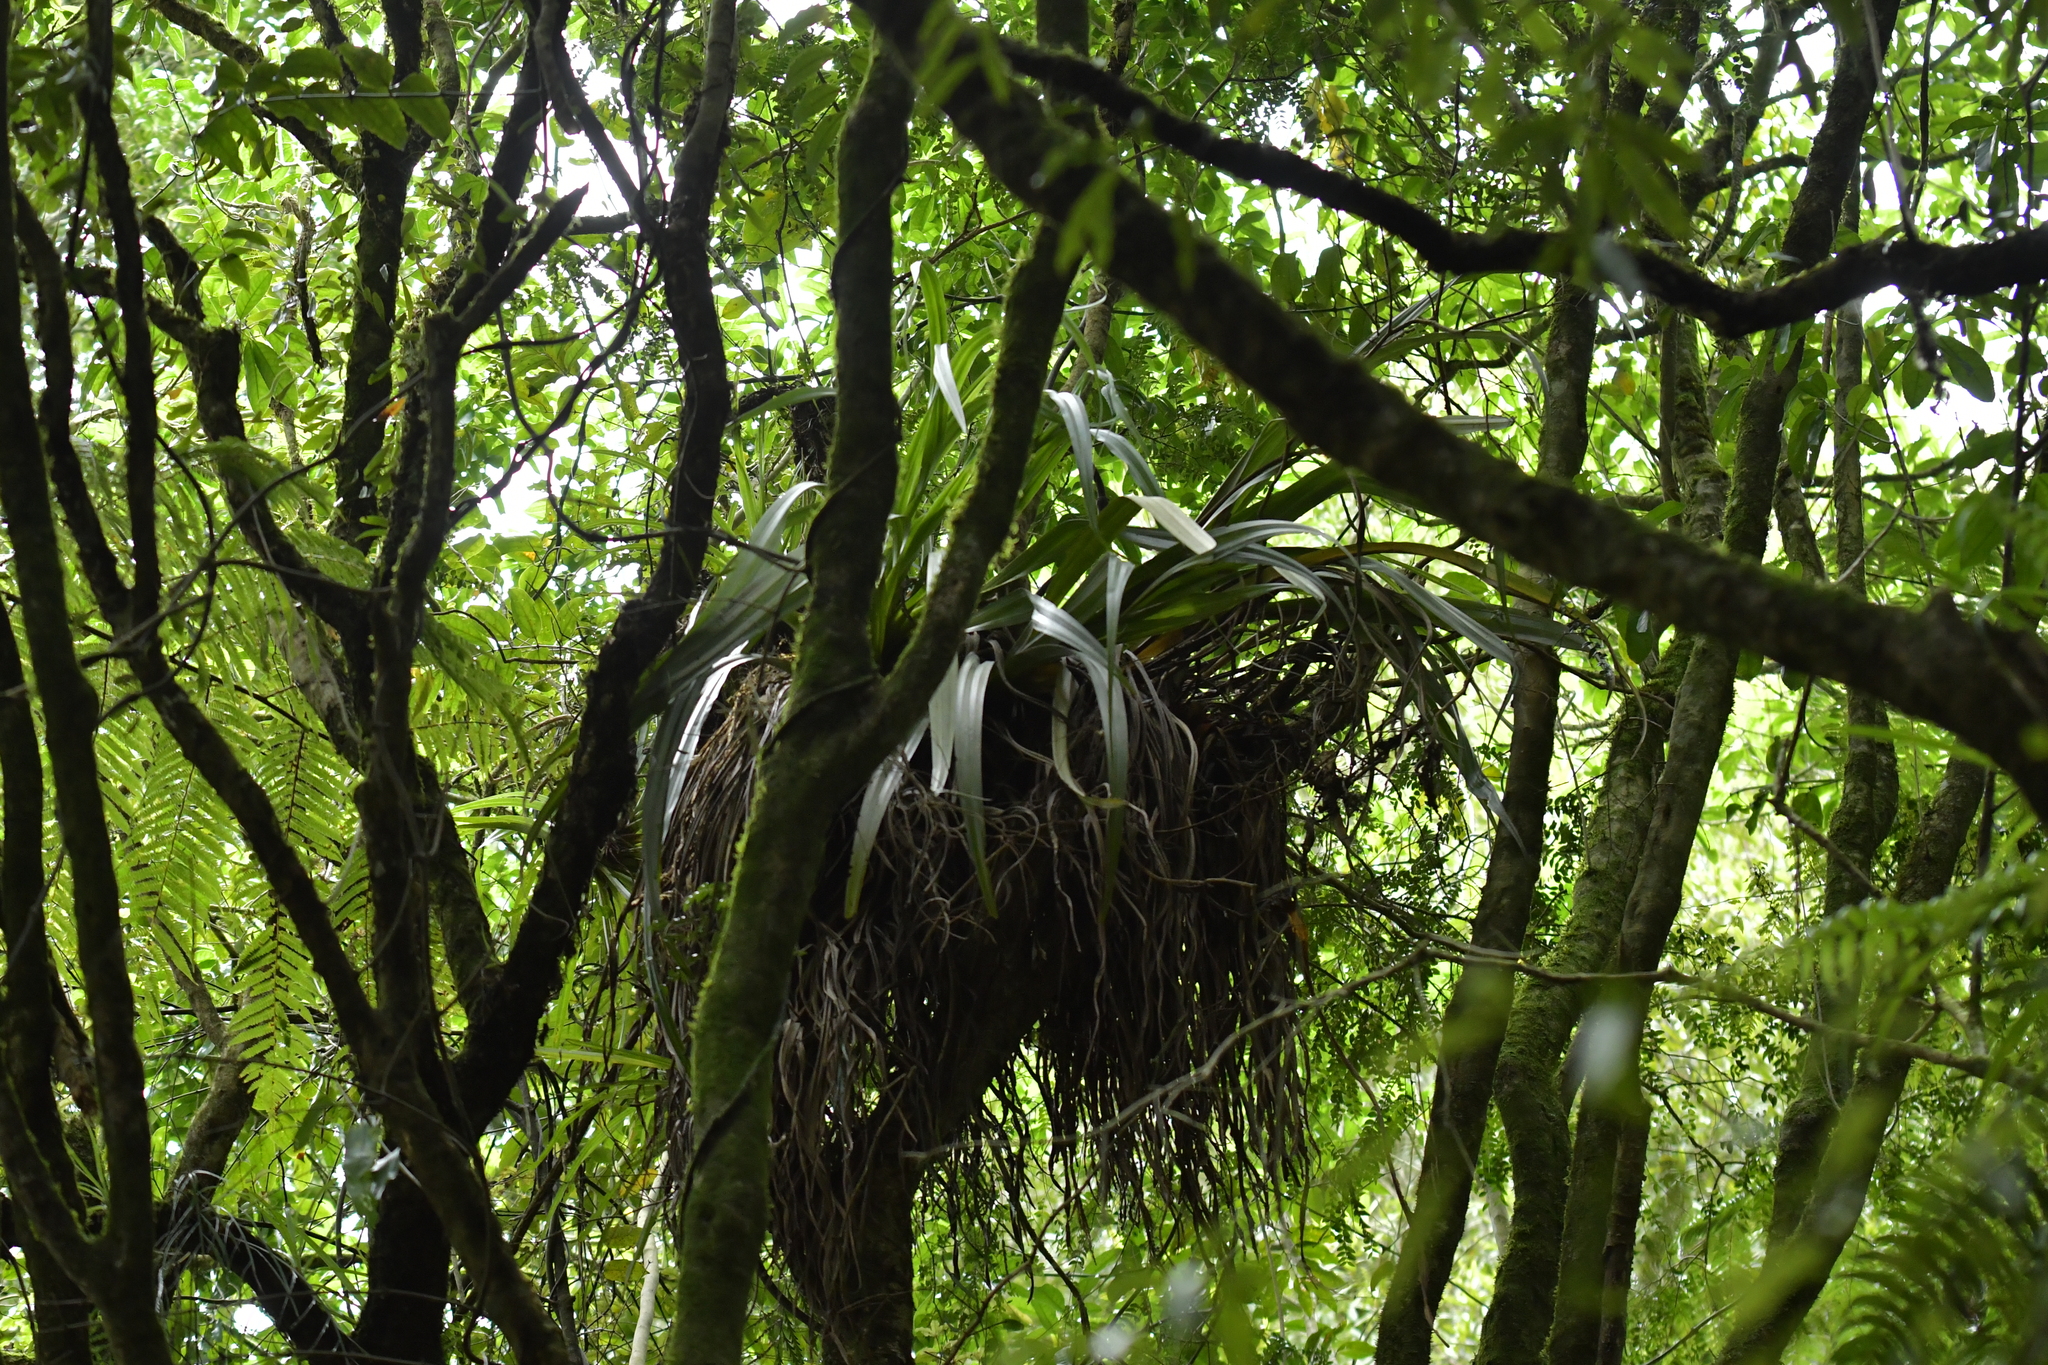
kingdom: Plantae
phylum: Tracheophyta
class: Liliopsida
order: Asparagales
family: Asteliaceae
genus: Astelia
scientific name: Astelia hastata
